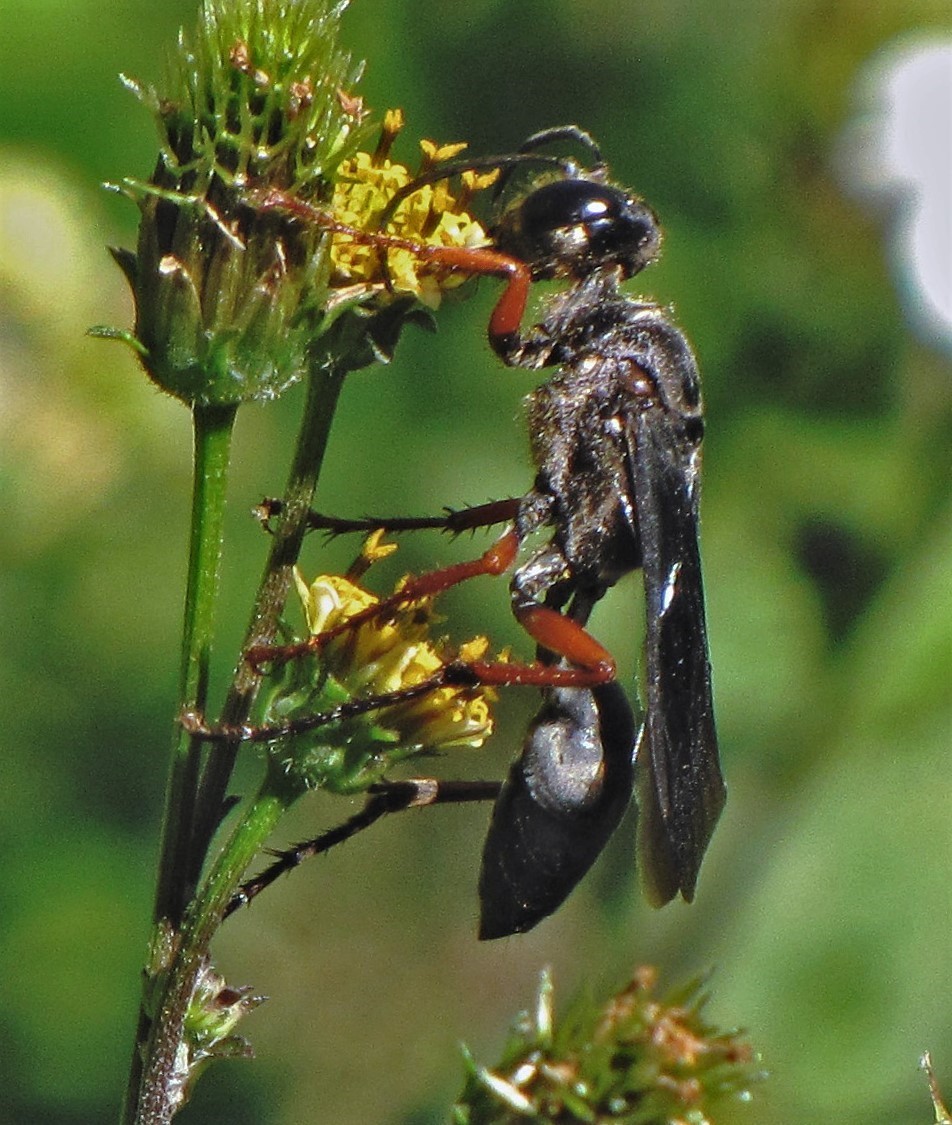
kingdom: Animalia
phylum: Arthropoda
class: Insecta
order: Hymenoptera
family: Sphecidae
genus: Sphex
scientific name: Sphex opacus
